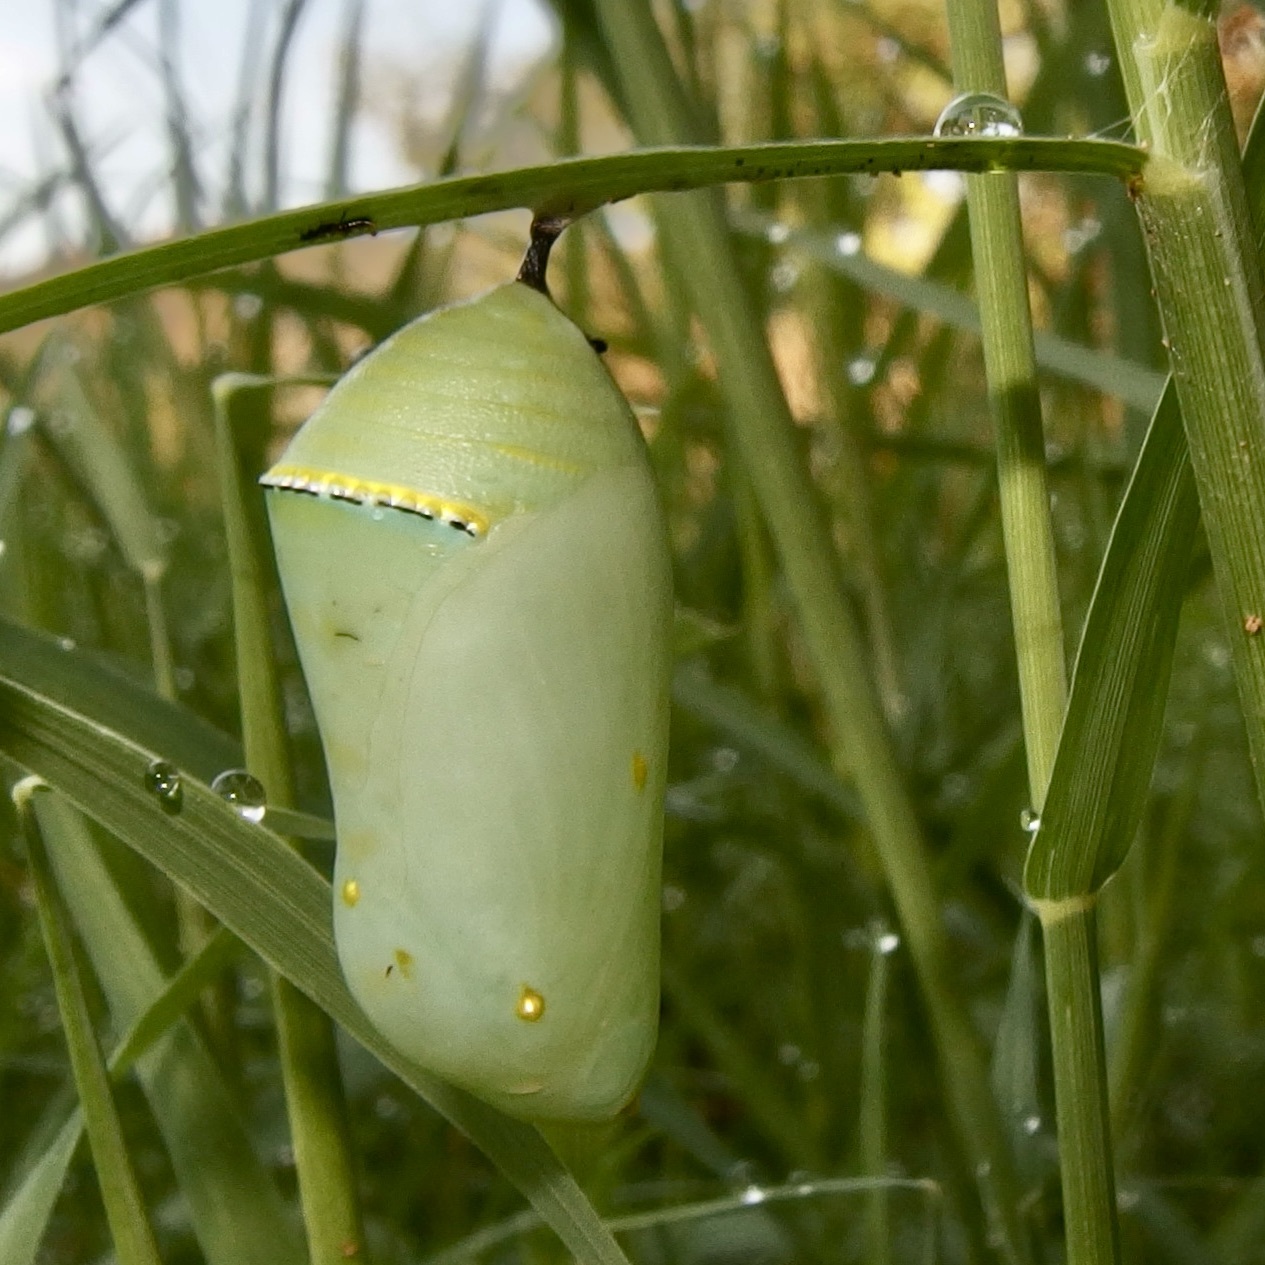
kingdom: Animalia
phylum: Arthropoda
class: Insecta
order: Lepidoptera
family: Nymphalidae
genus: Danaus
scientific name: Danaus gilippus
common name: Queen
